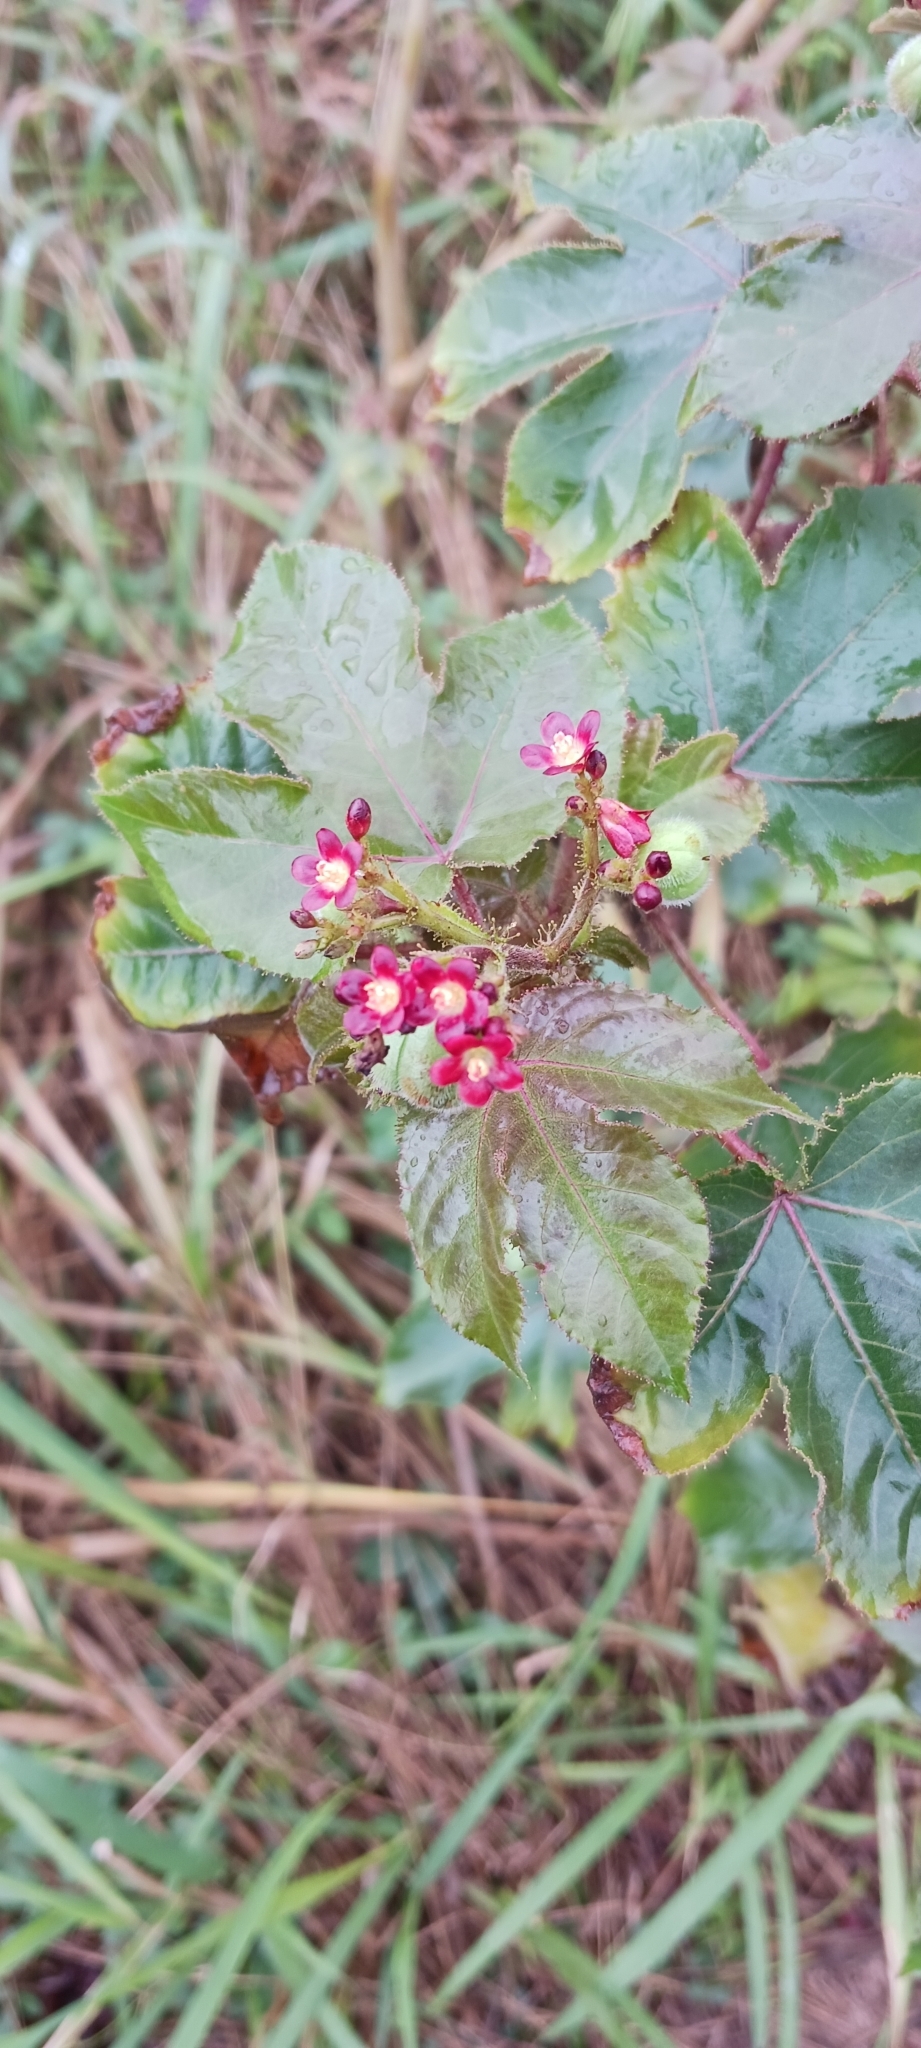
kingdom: Plantae
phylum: Tracheophyta
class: Magnoliopsida
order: Malpighiales
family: Euphorbiaceae
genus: Jatropha
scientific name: Jatropha gossypiifolia
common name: Bellyache bush
